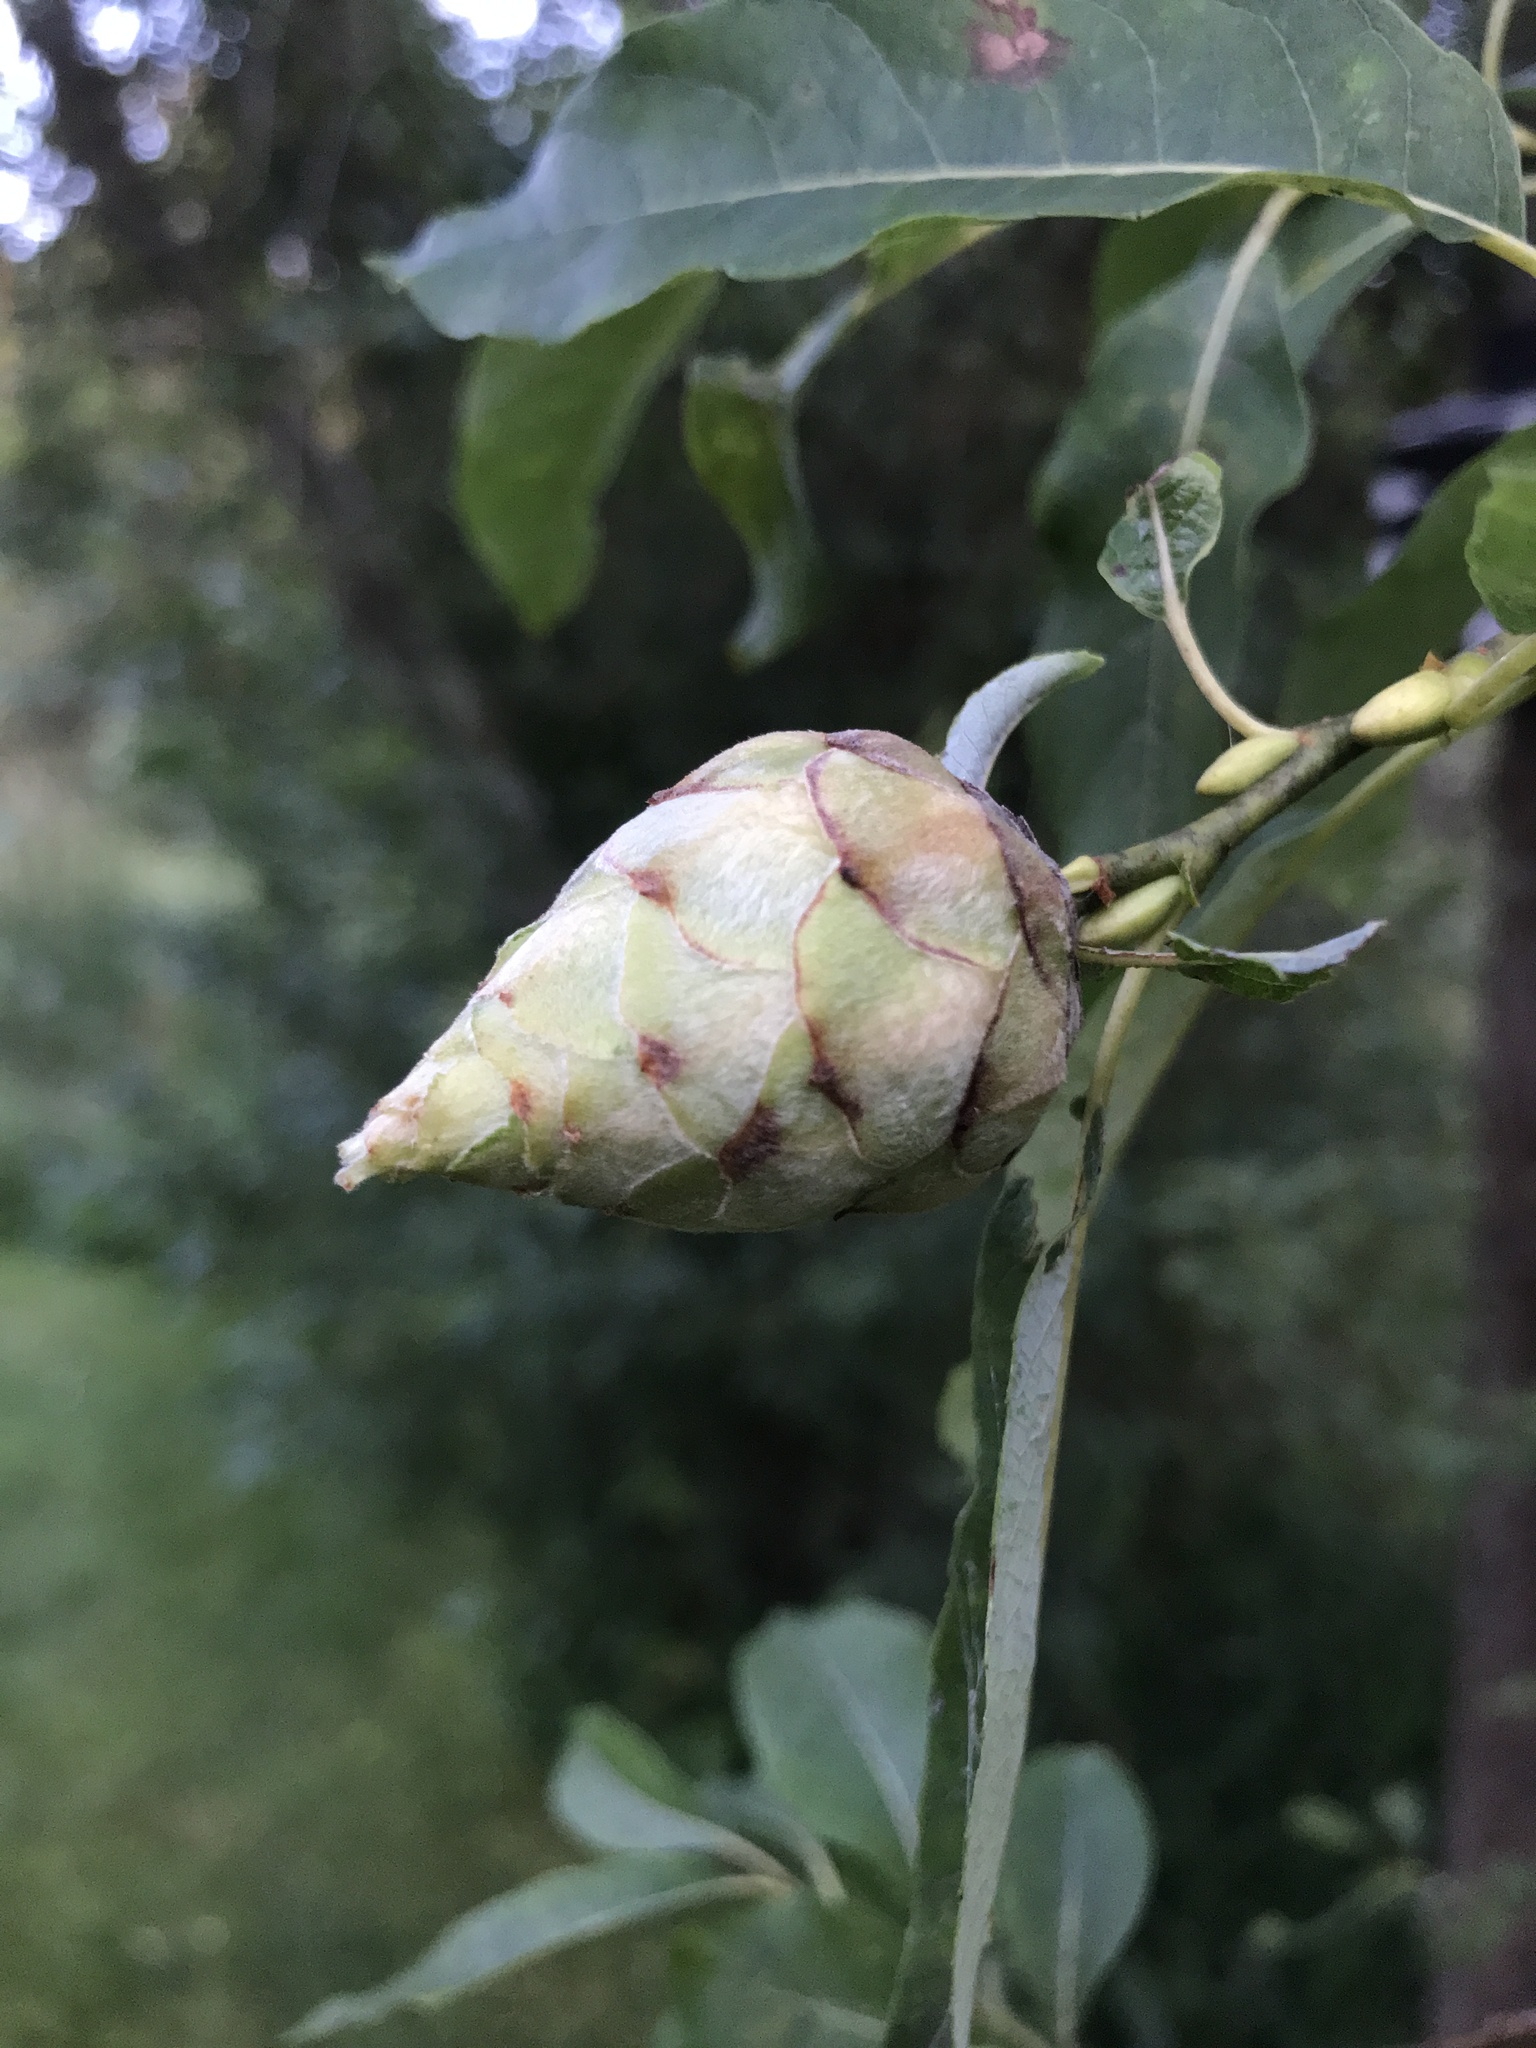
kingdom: Animalia
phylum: Arthropoda
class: Insecta
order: Diptera
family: Cecidomyiidae
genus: Rabdophaga
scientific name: Rabdophaga strobiloides
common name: Willow pinecone gall midge
